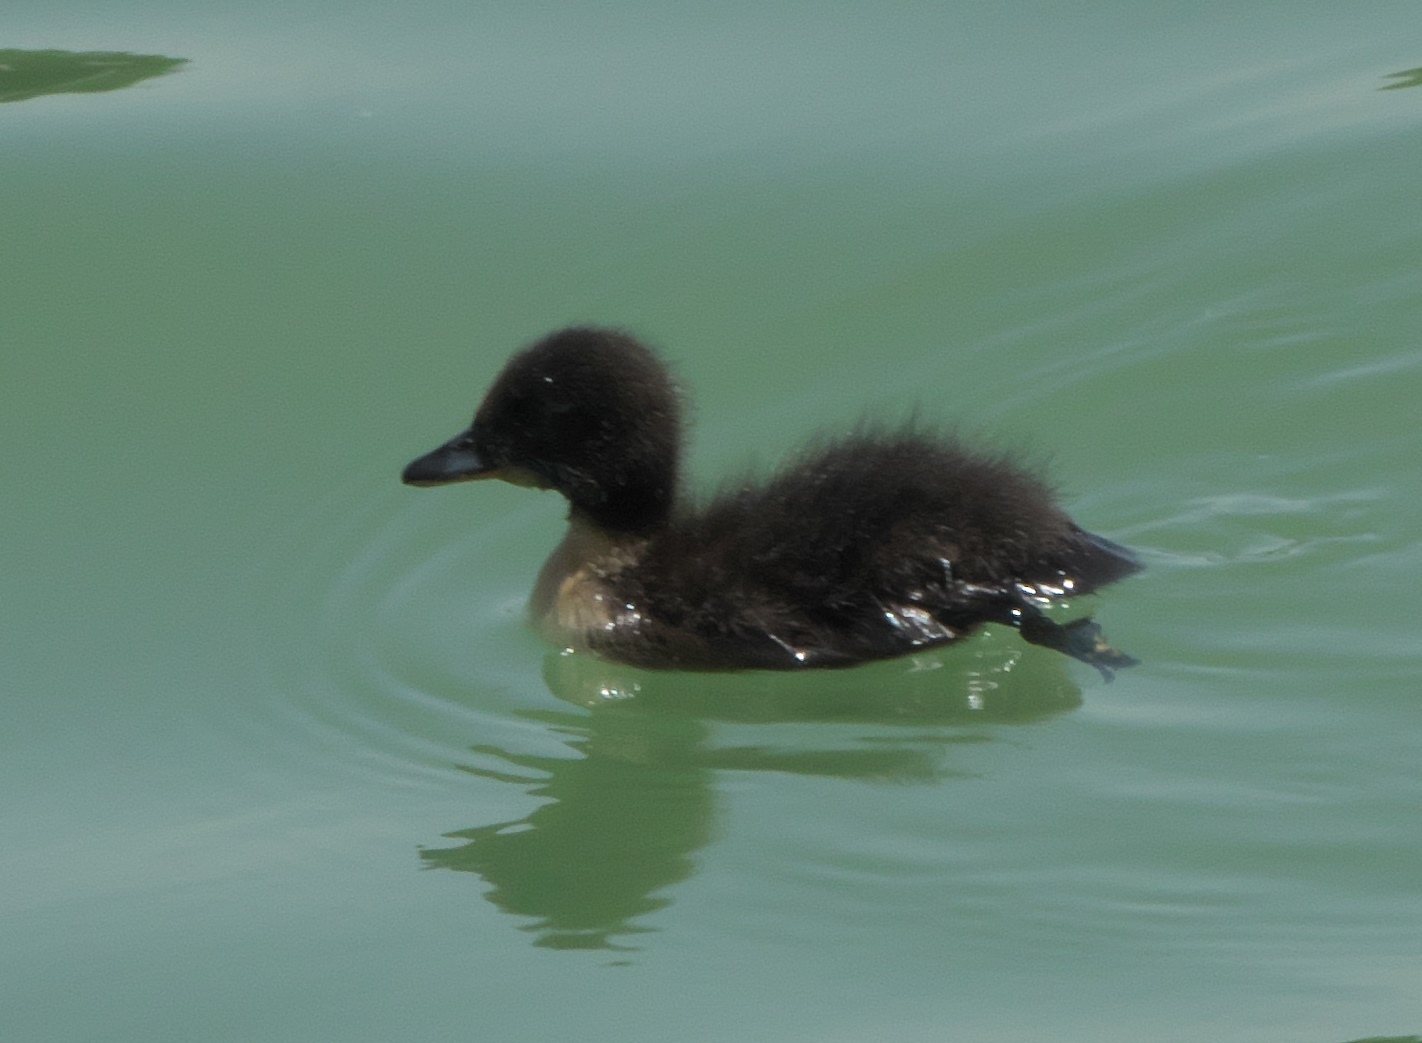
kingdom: Animalia
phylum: Chordata
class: Aves
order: Anseriformes
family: Anatidae
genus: Anas
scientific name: Anas platyrhynchos
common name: Mallard
